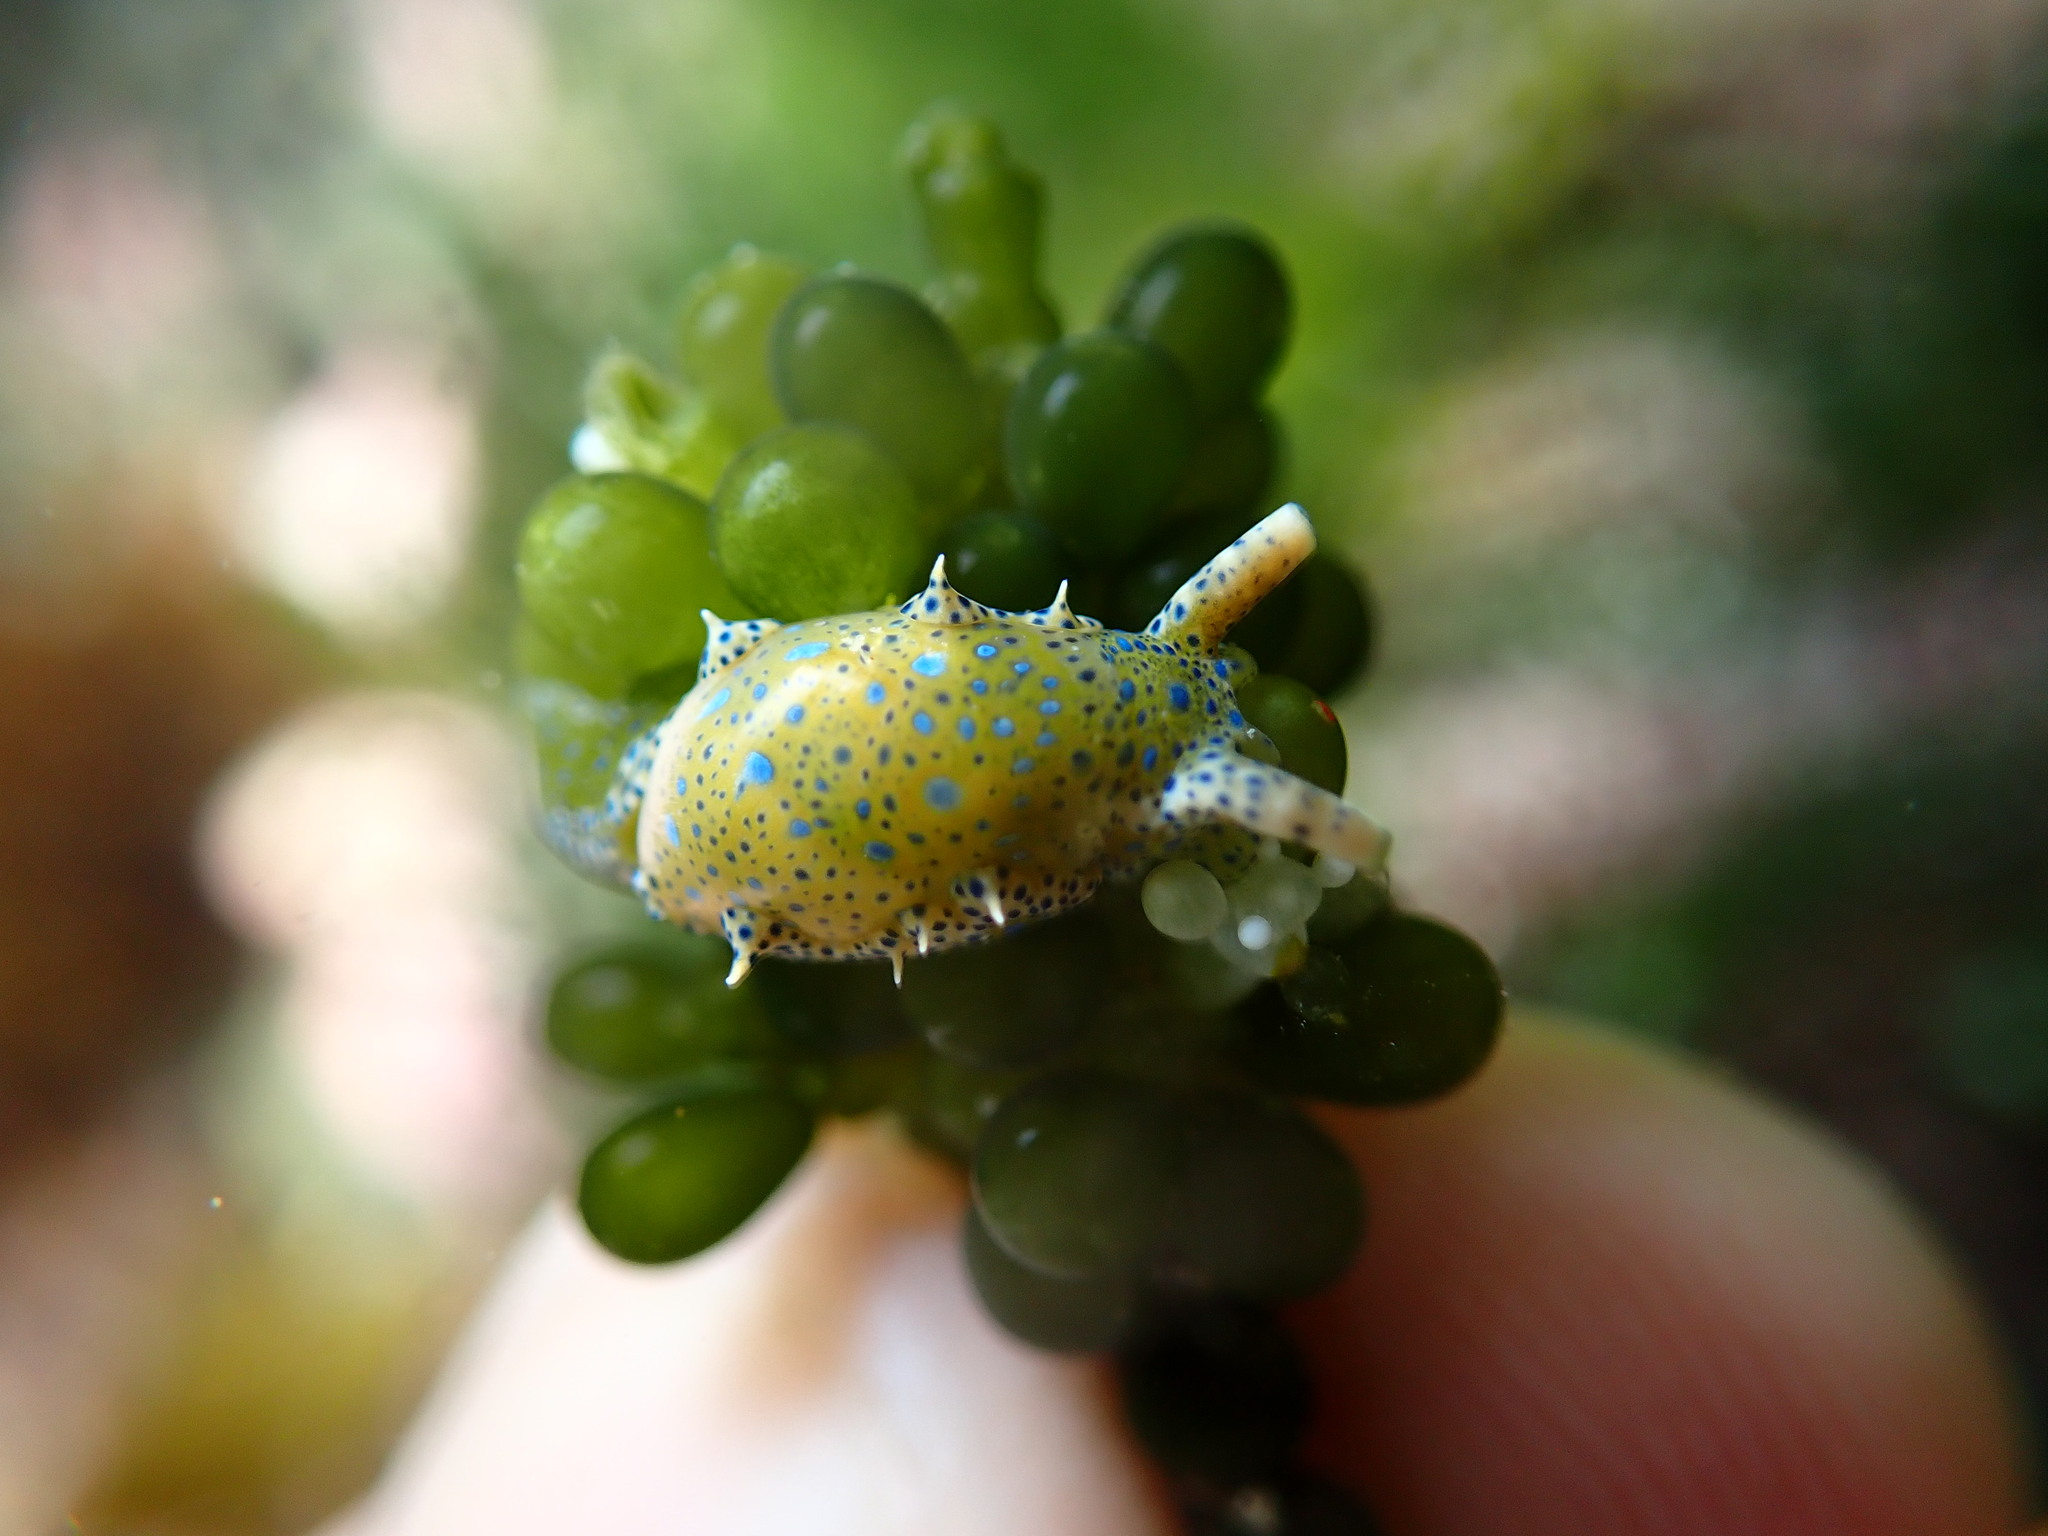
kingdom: Animalia
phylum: Mollusca
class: Gastropoda
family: Oxynoidae
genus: Oxynoe
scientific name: Oxynoe viridis
